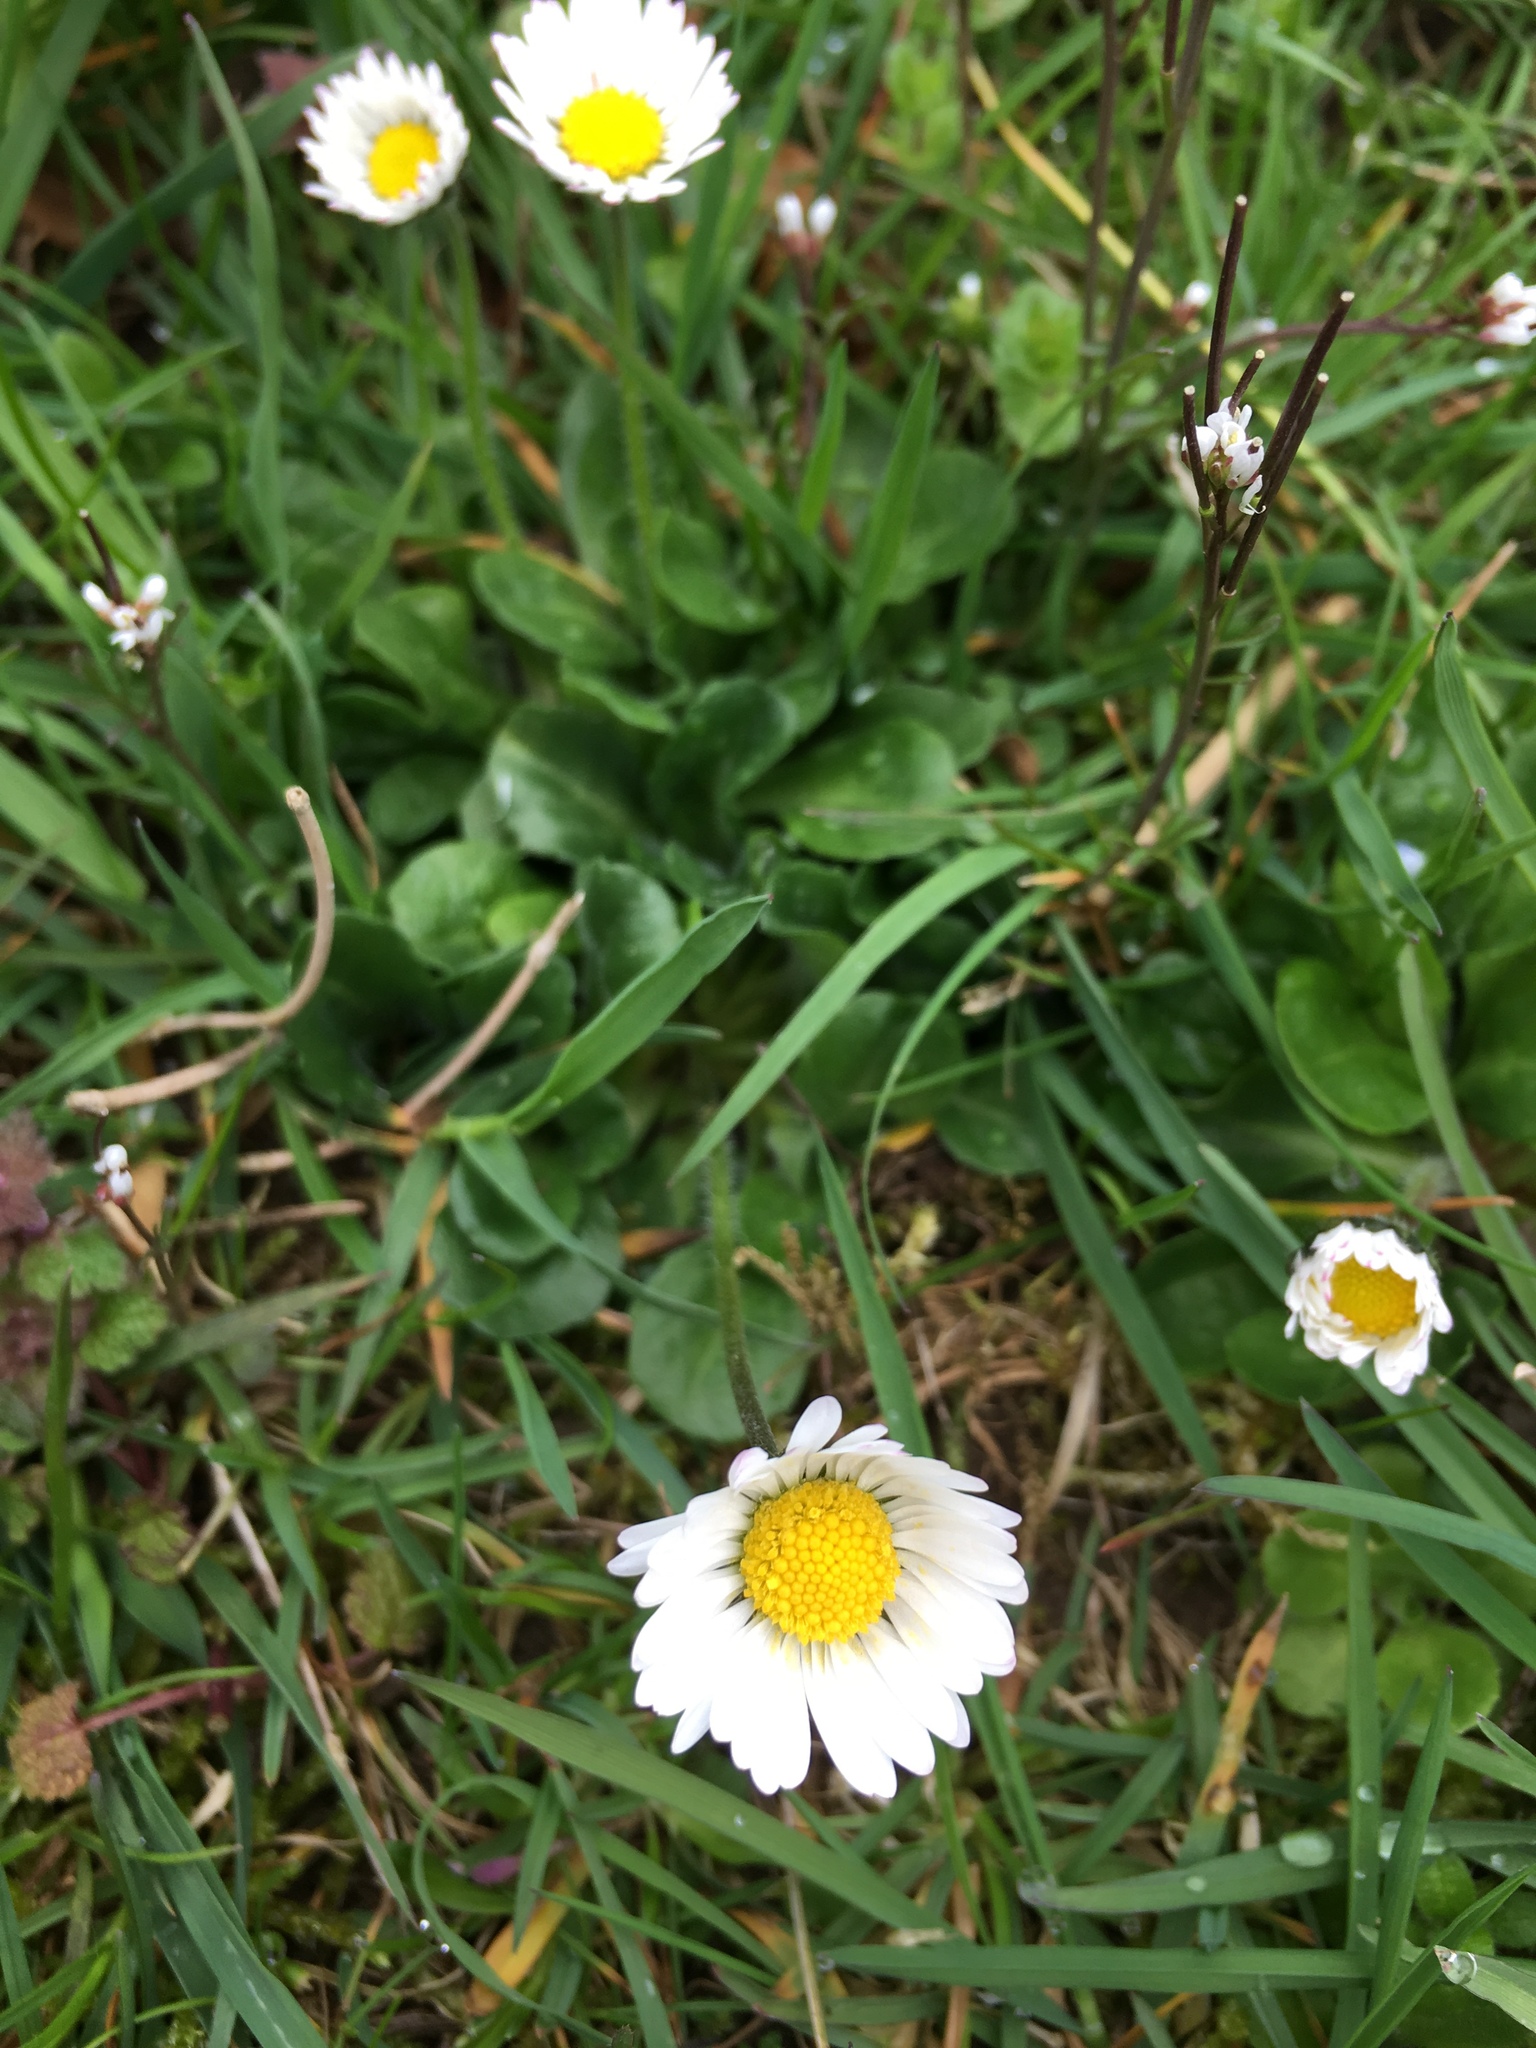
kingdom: Plantae
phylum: Tracheophyta
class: Magnoliopsida
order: Asterales
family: Asteraceae
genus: Bellis
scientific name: Bellis perennis
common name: Lawndaisy
